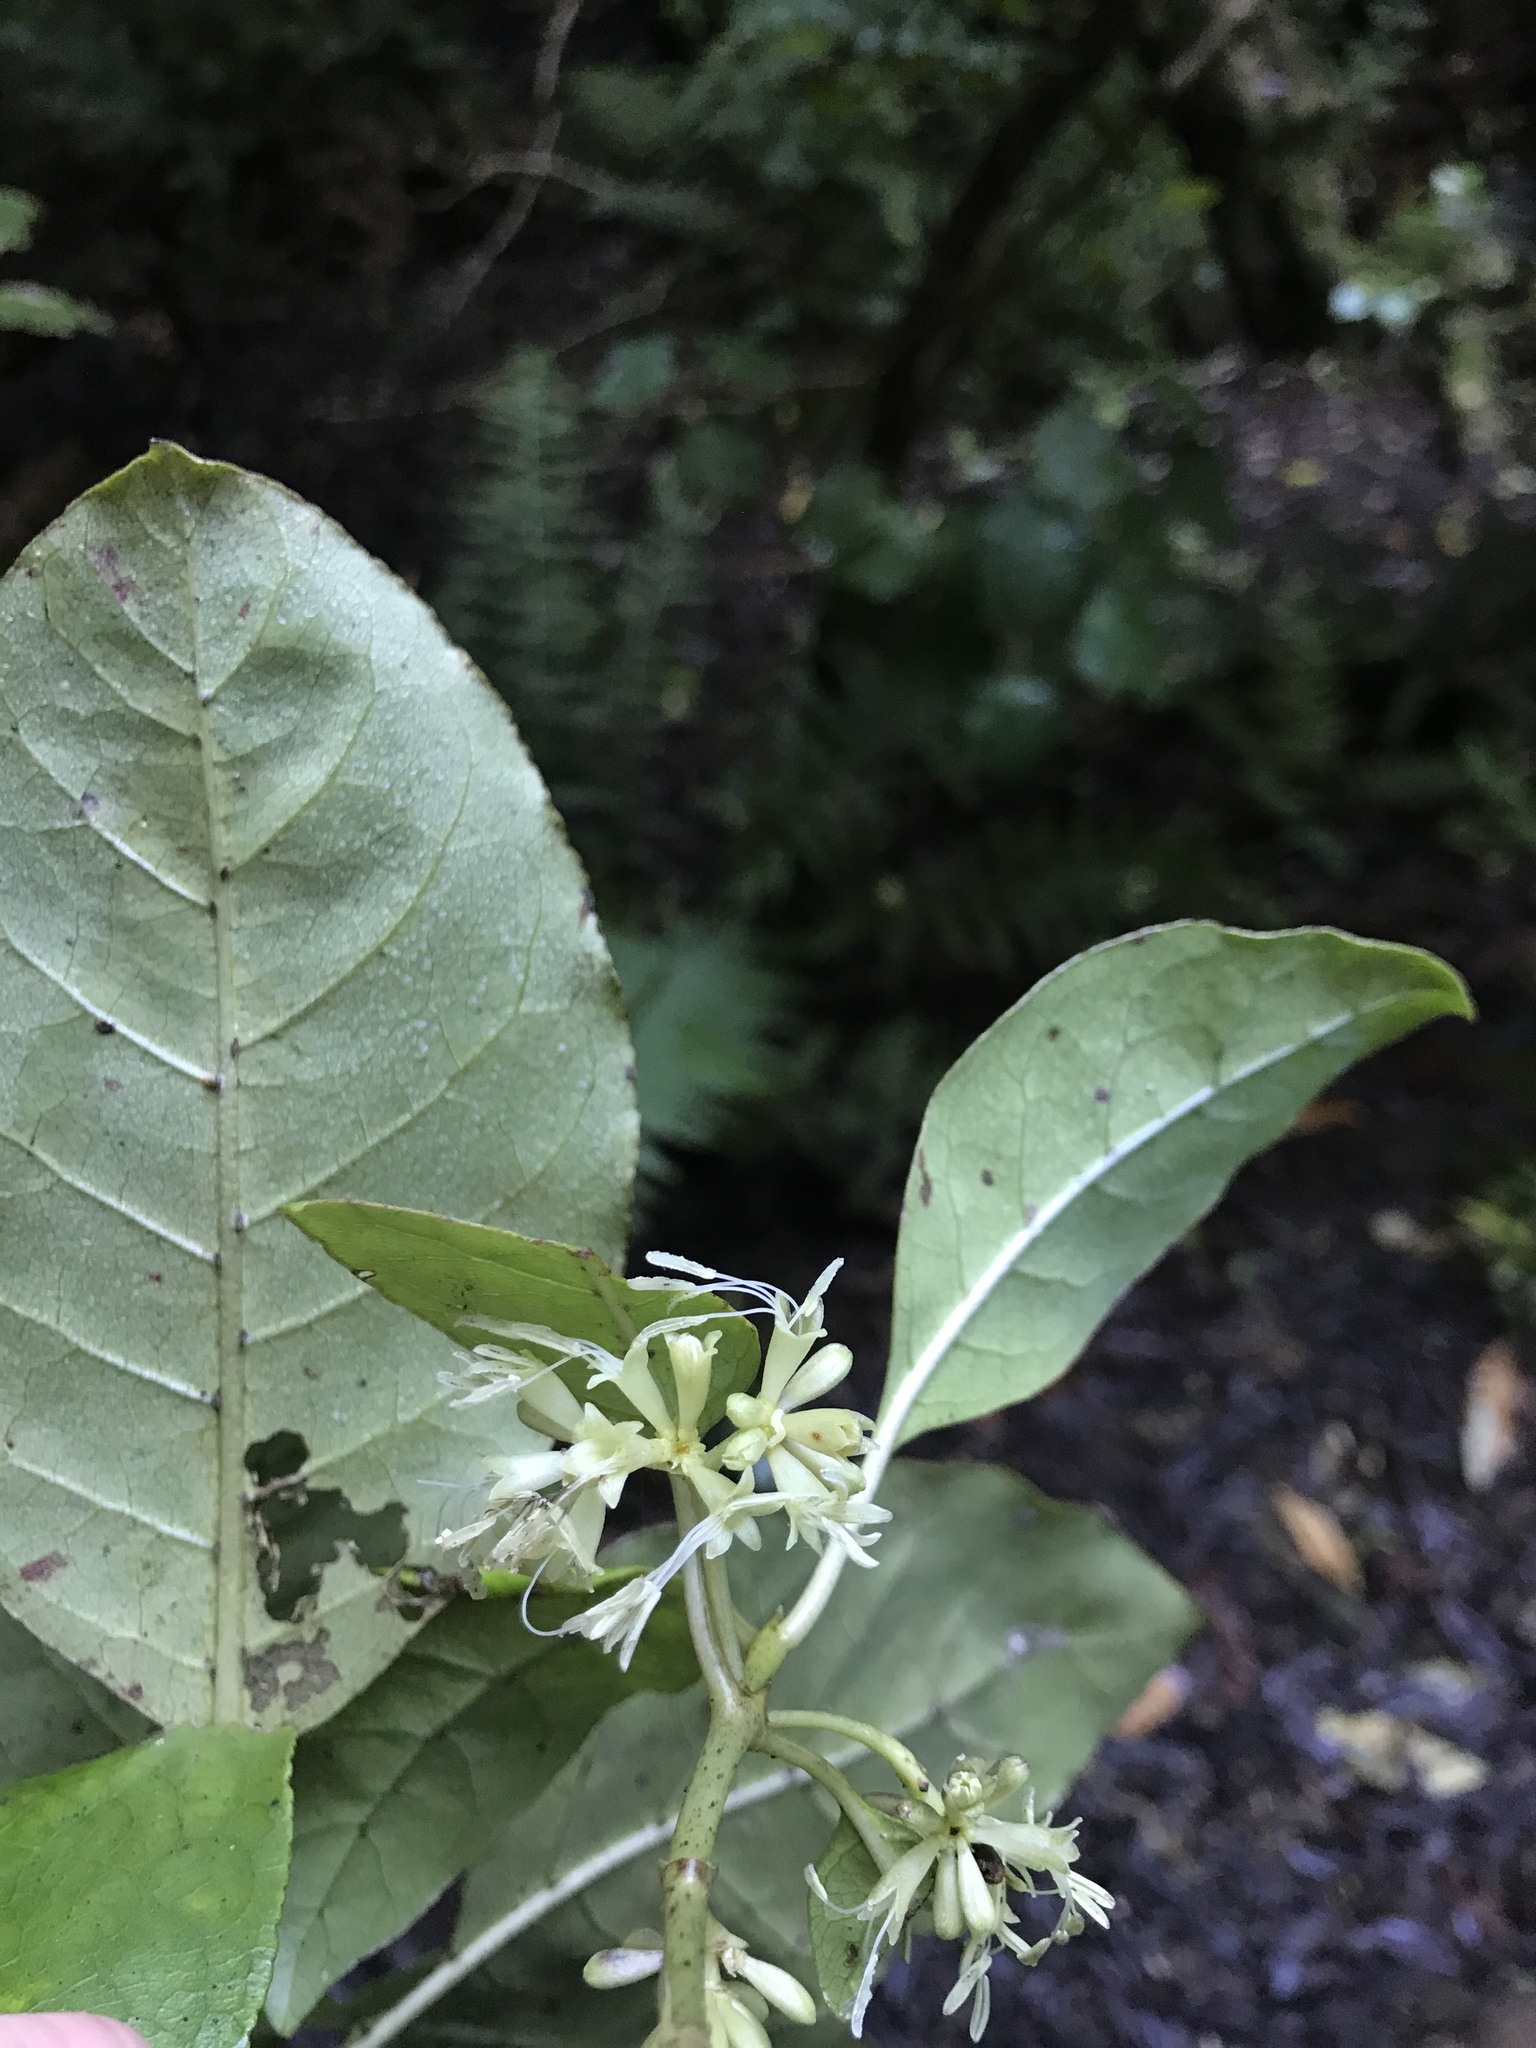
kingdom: Plantae
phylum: Tracheophyta
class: Magnoliopsida
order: Gentianales
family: Rubiaceae
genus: Coprosma
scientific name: Coprosma autumnalis
